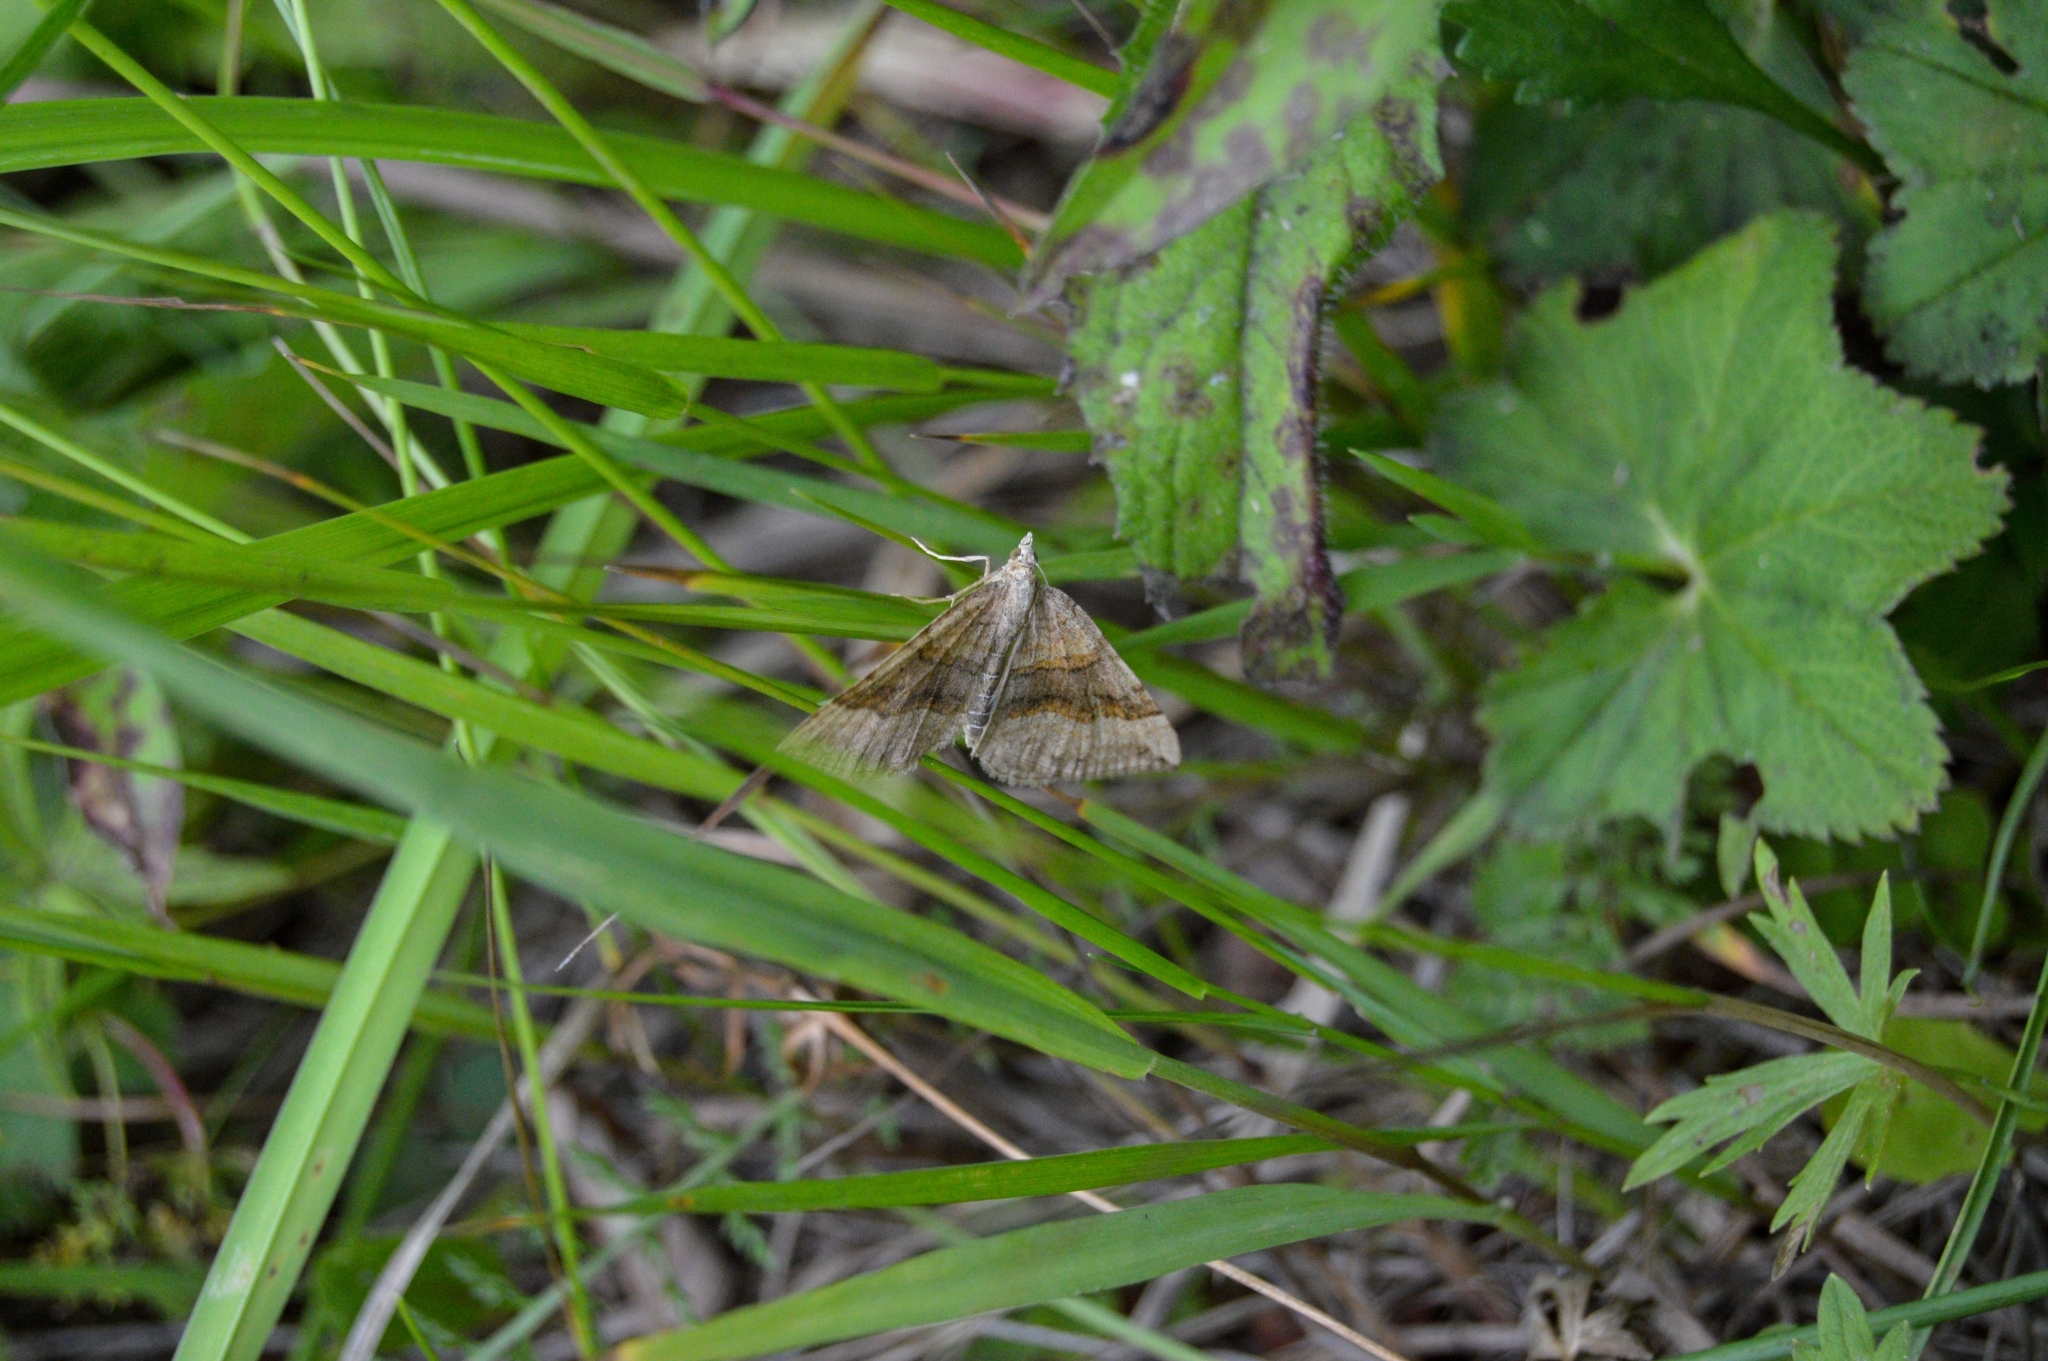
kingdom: Animalia
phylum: Arthropoda
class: Insecta
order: Lepidoptera
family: Geometridae
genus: Scotopteryx
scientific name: Scotopteryx chenopodiata
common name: Shaded broad-bar
